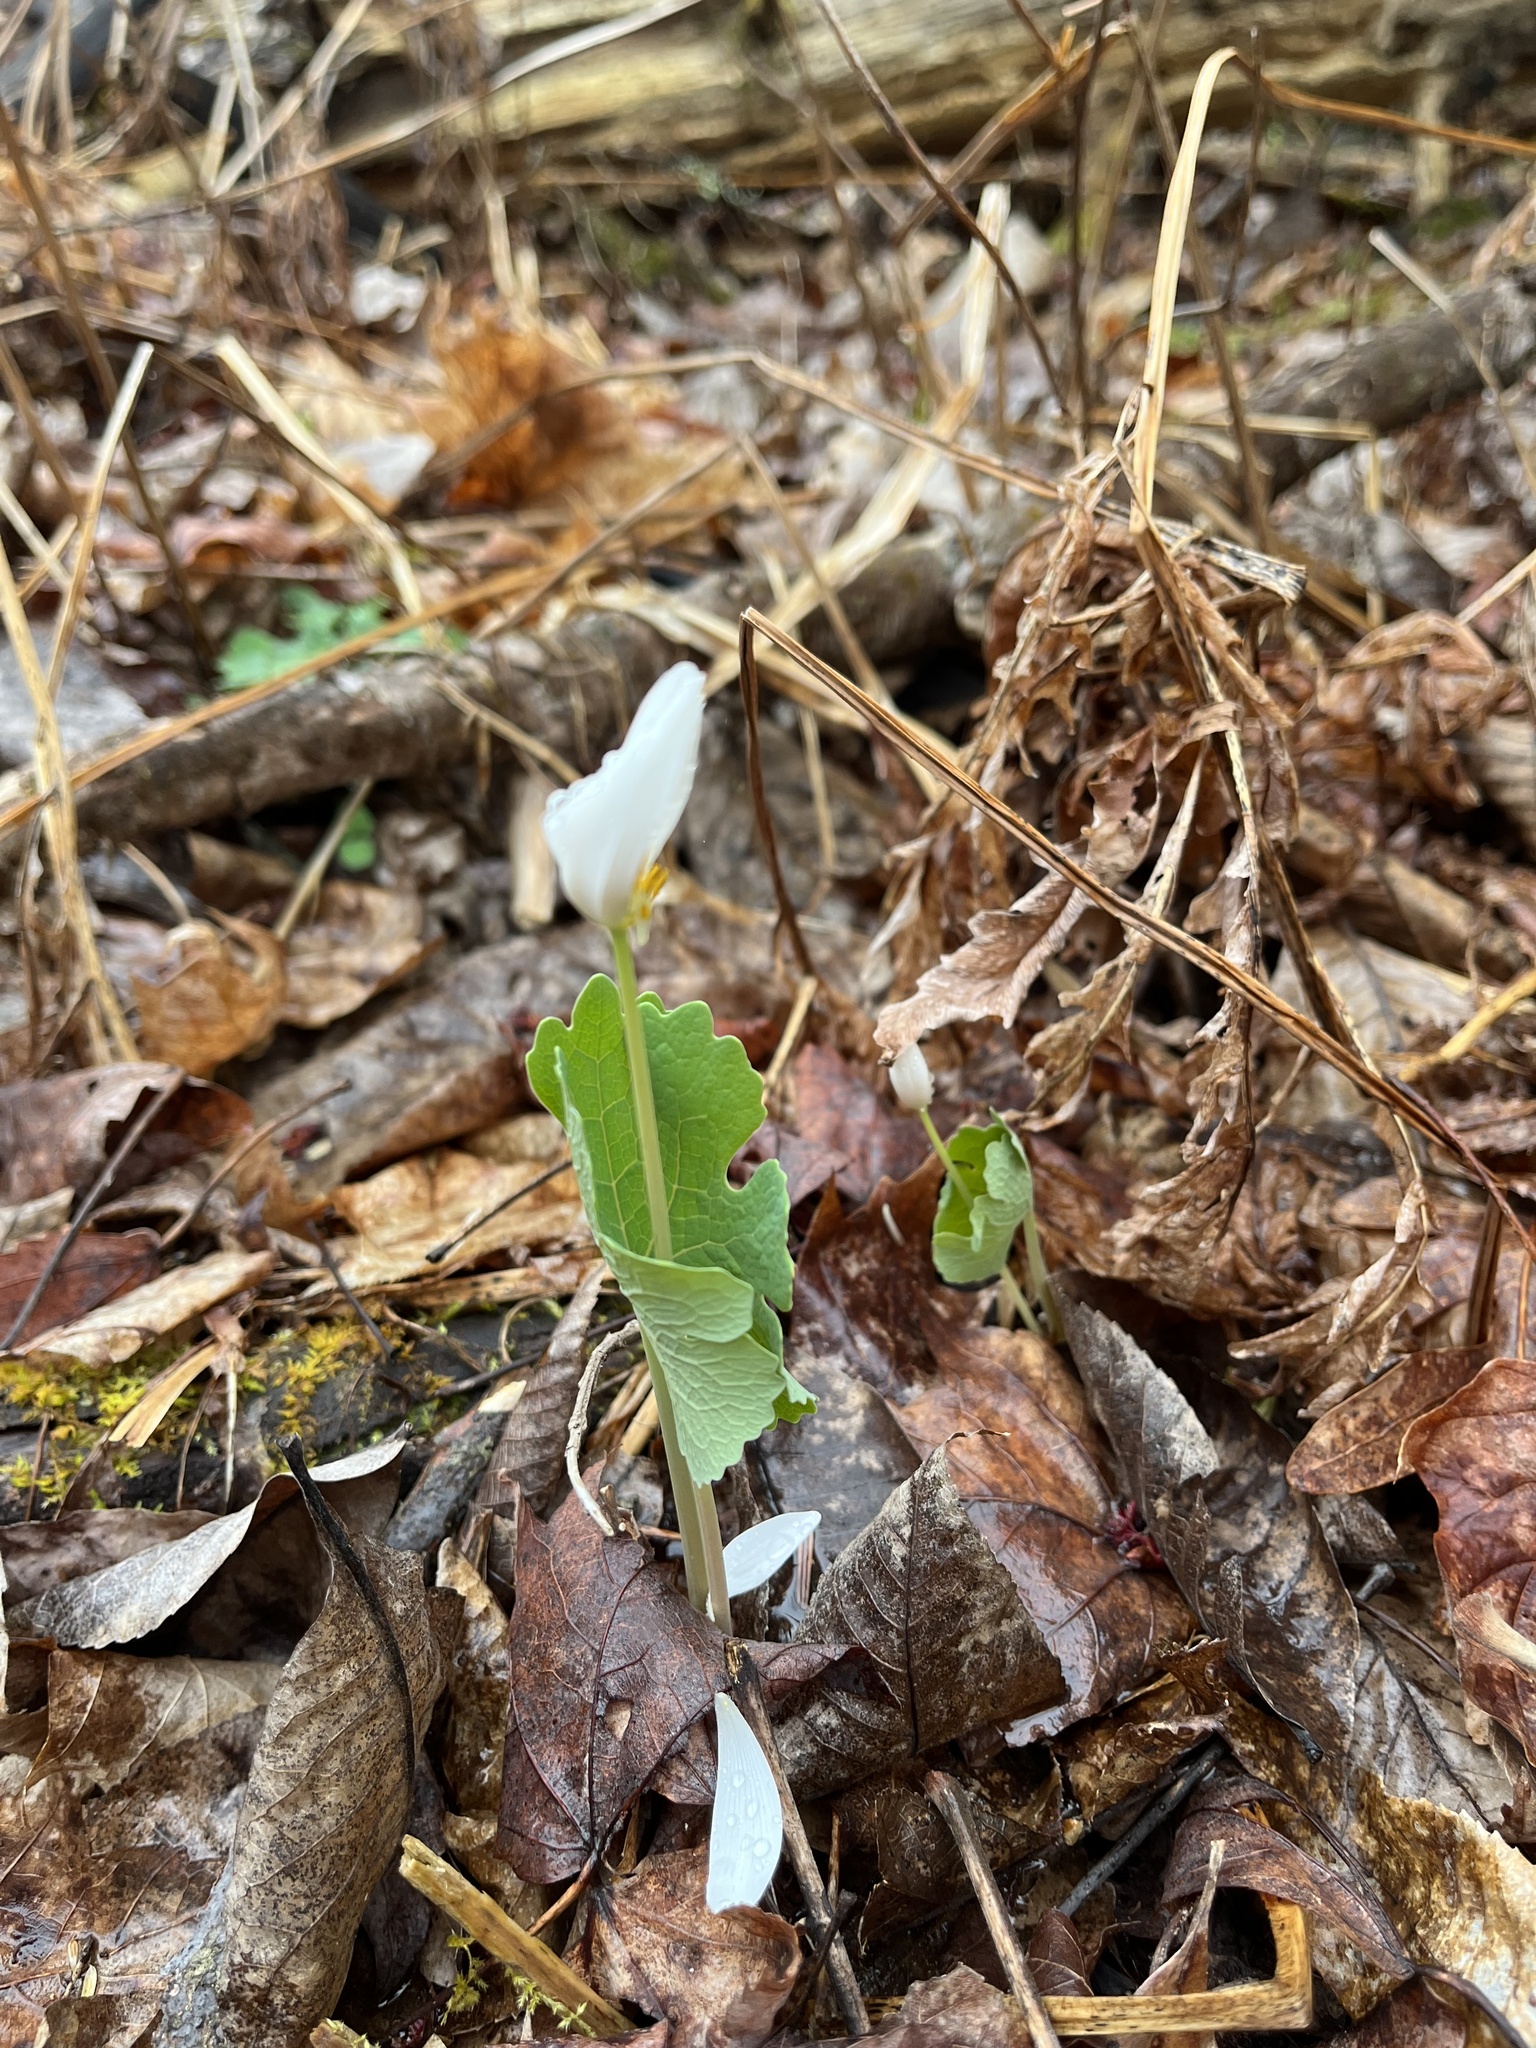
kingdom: Plantae
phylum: Tracheophyta
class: Magnoliopsida
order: Ranunculales
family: Papaveraceae
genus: Sanguinaria
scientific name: Sanguinaria canadensis
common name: Bloodroot
